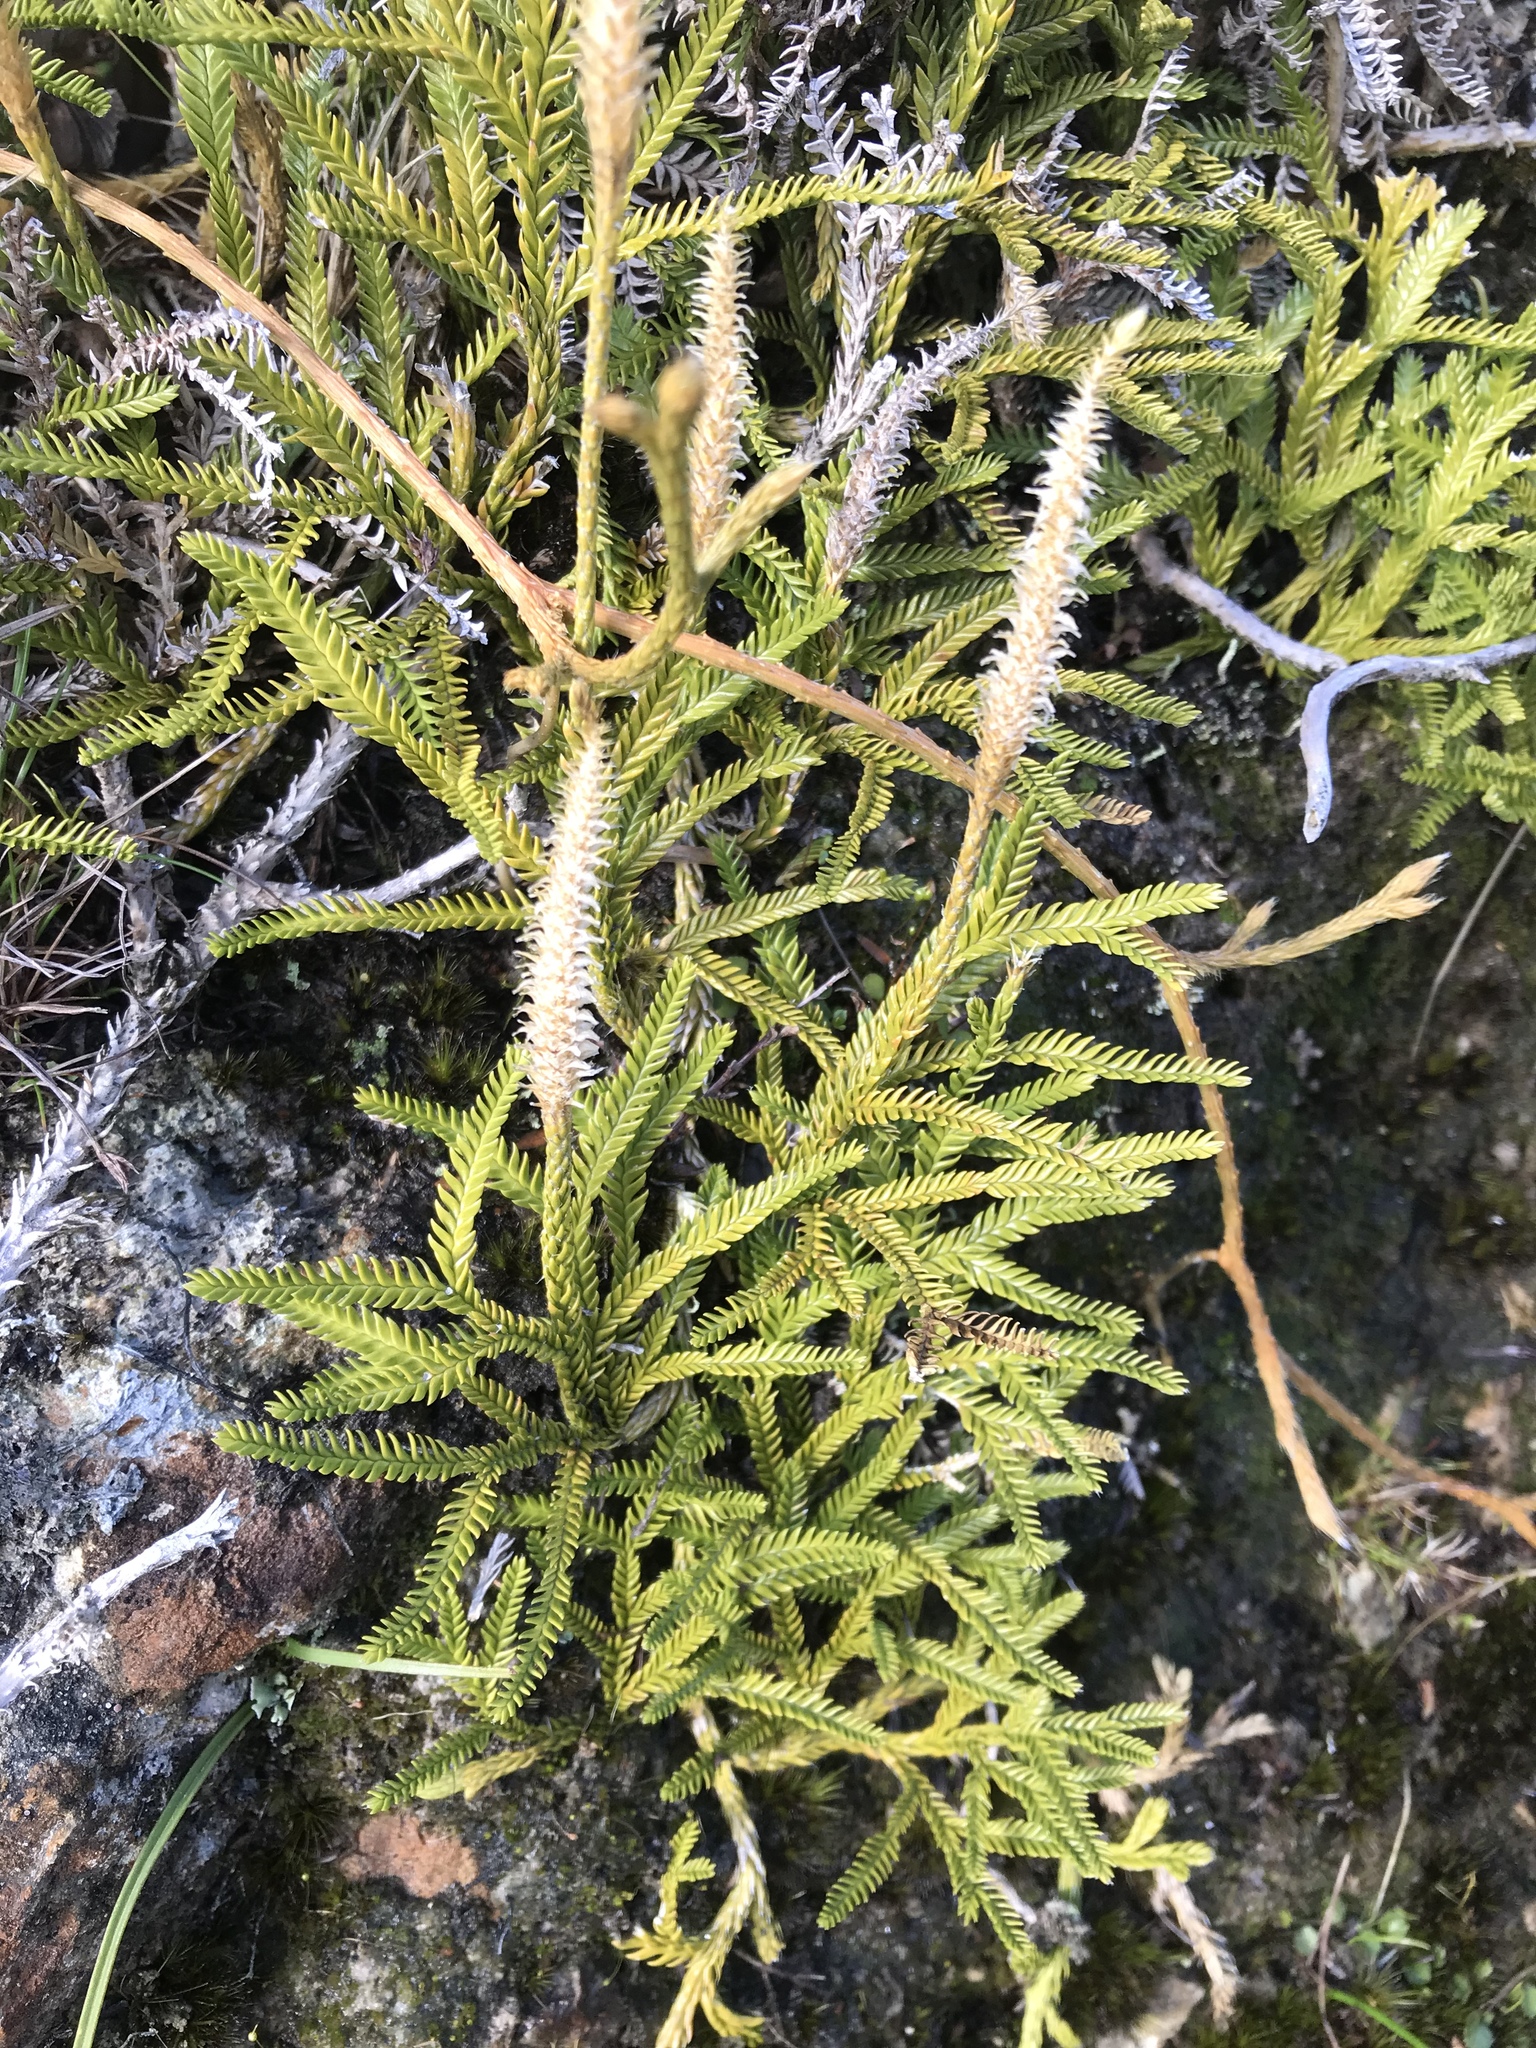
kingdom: Plantae
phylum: Tracheophyta
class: Lycopodiopsida
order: Lycopodiales
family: Lycopodiaceae
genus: Diphasium
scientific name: Diphasium scariosum
